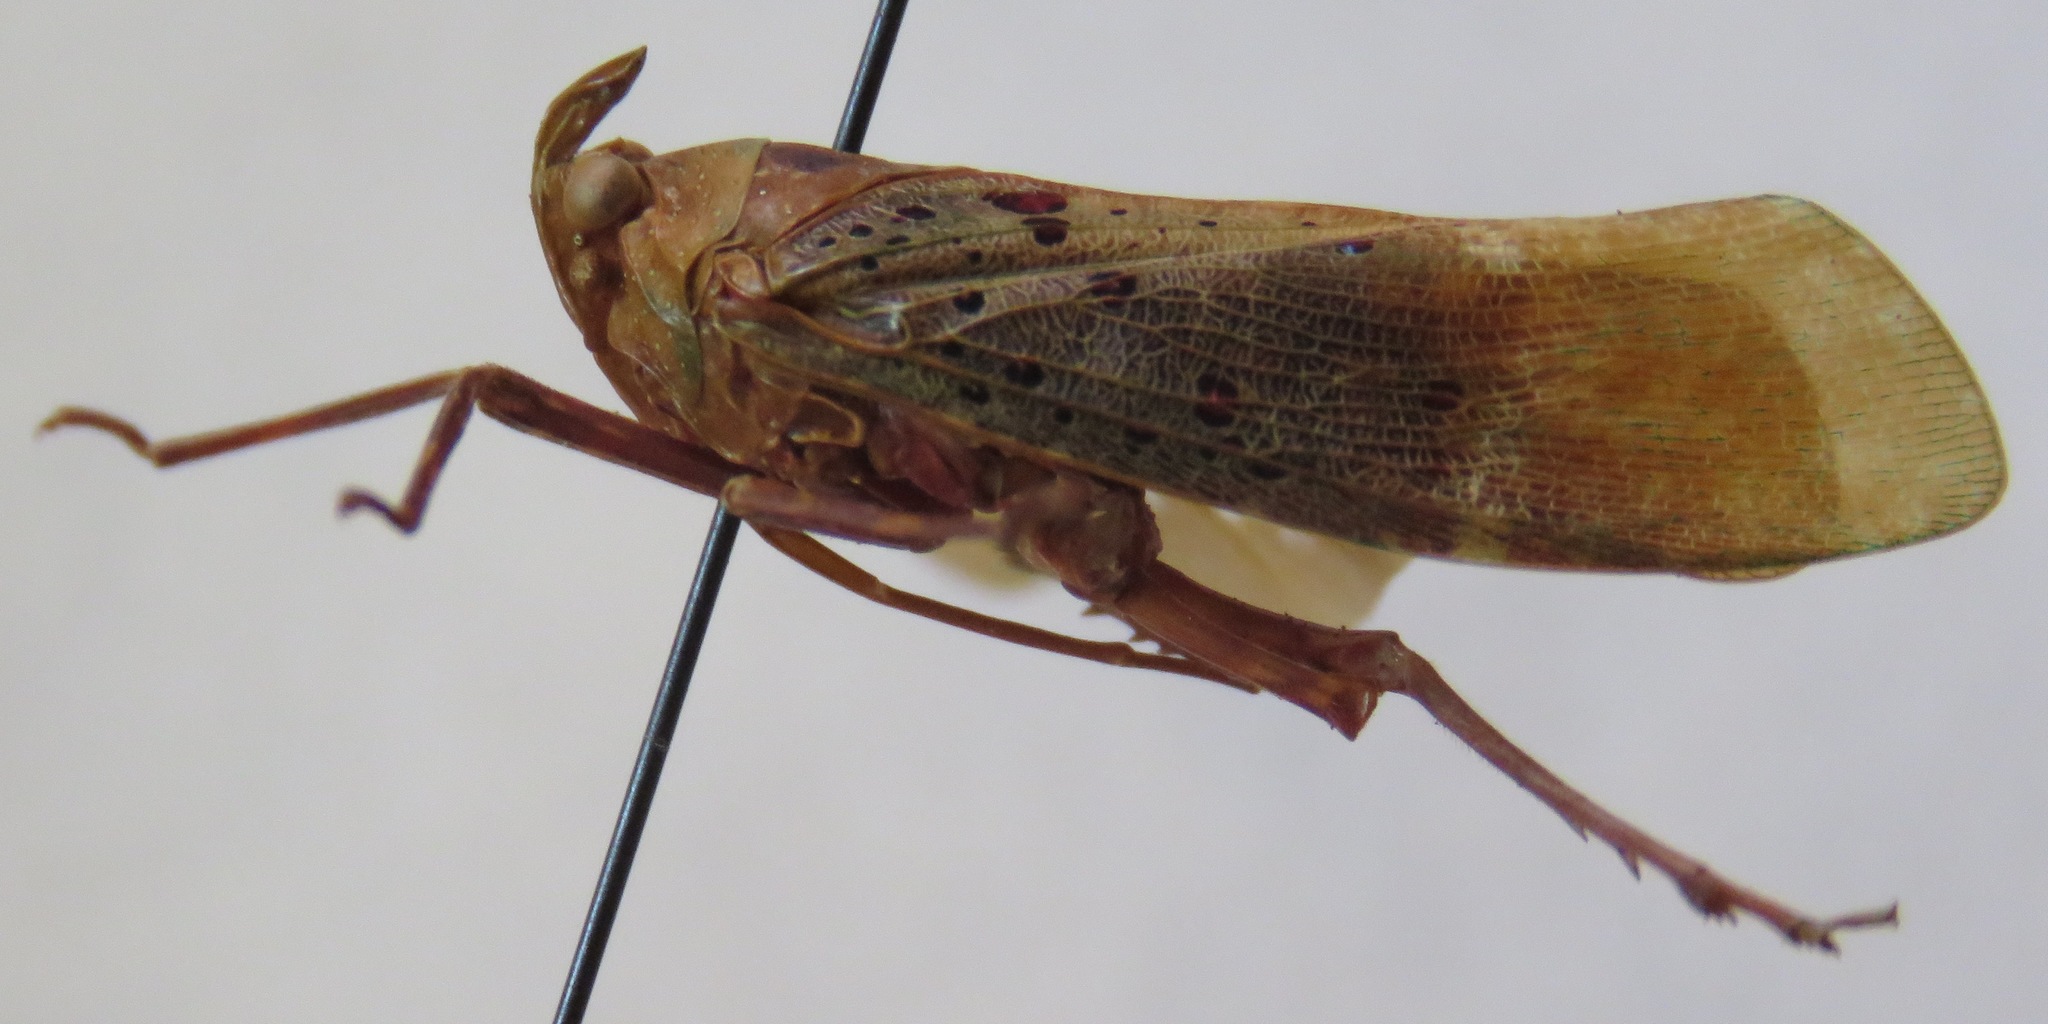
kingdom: Animalia
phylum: Arthropoda
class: Insecta
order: Hemiptera
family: Fulgoridae
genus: Copidocephala
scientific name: Copidocephala viridiguttata
